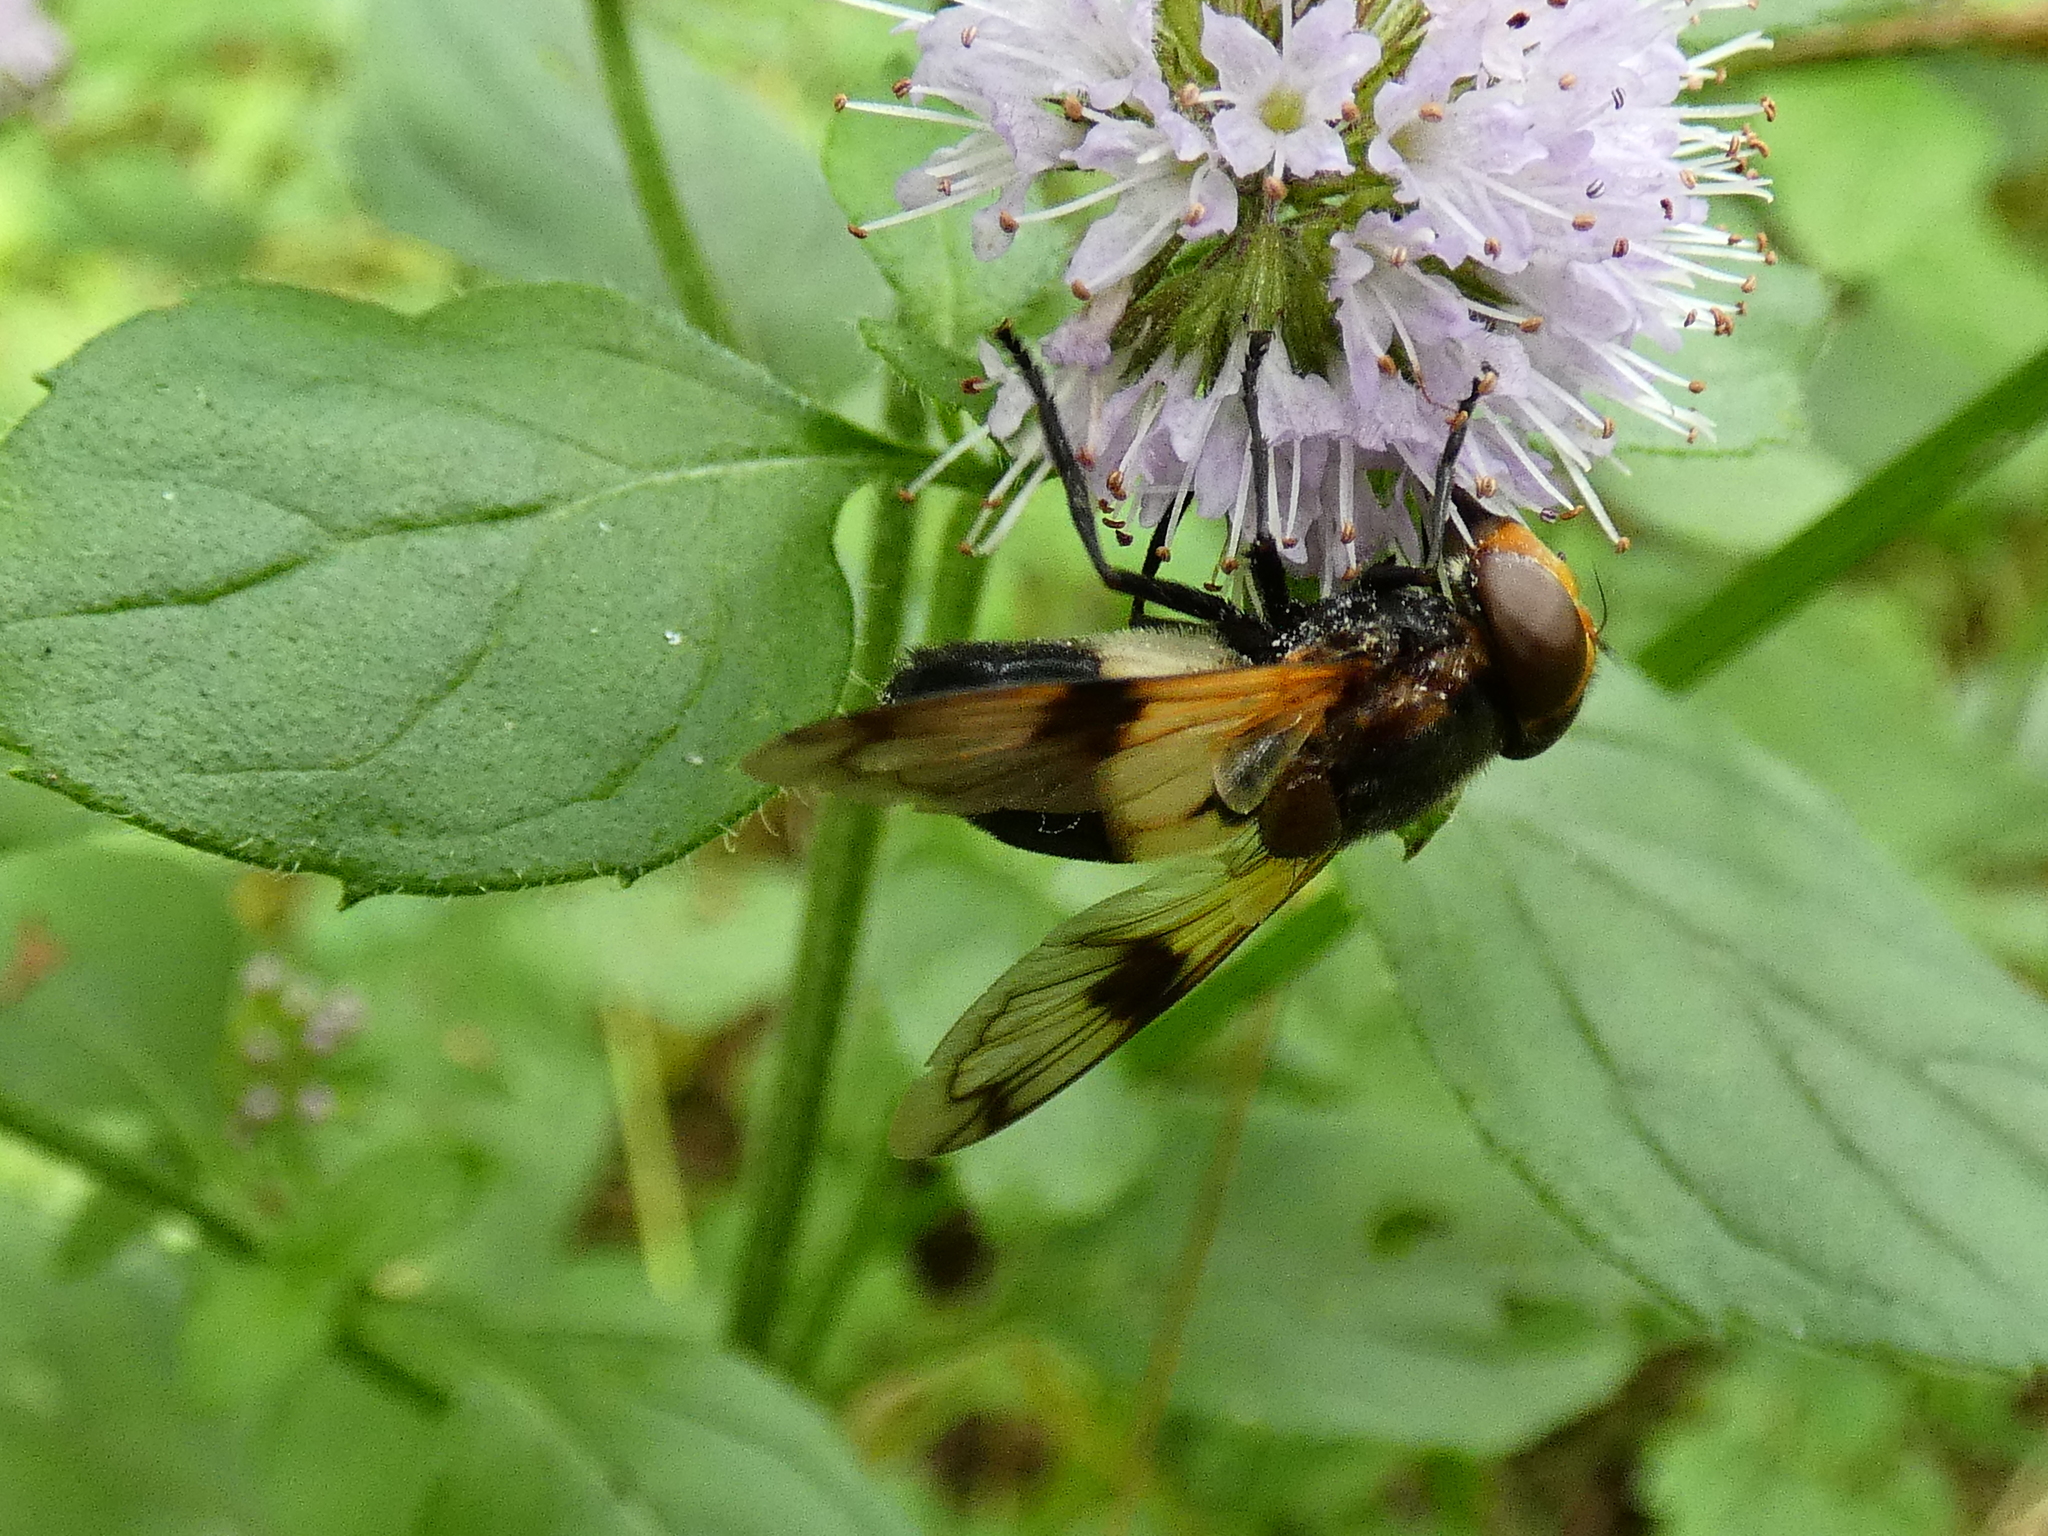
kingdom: Animalia
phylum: Arthropoda
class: Insecta
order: Diptera
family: Syrphidae
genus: Volucella
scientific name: Volucella pellucens
